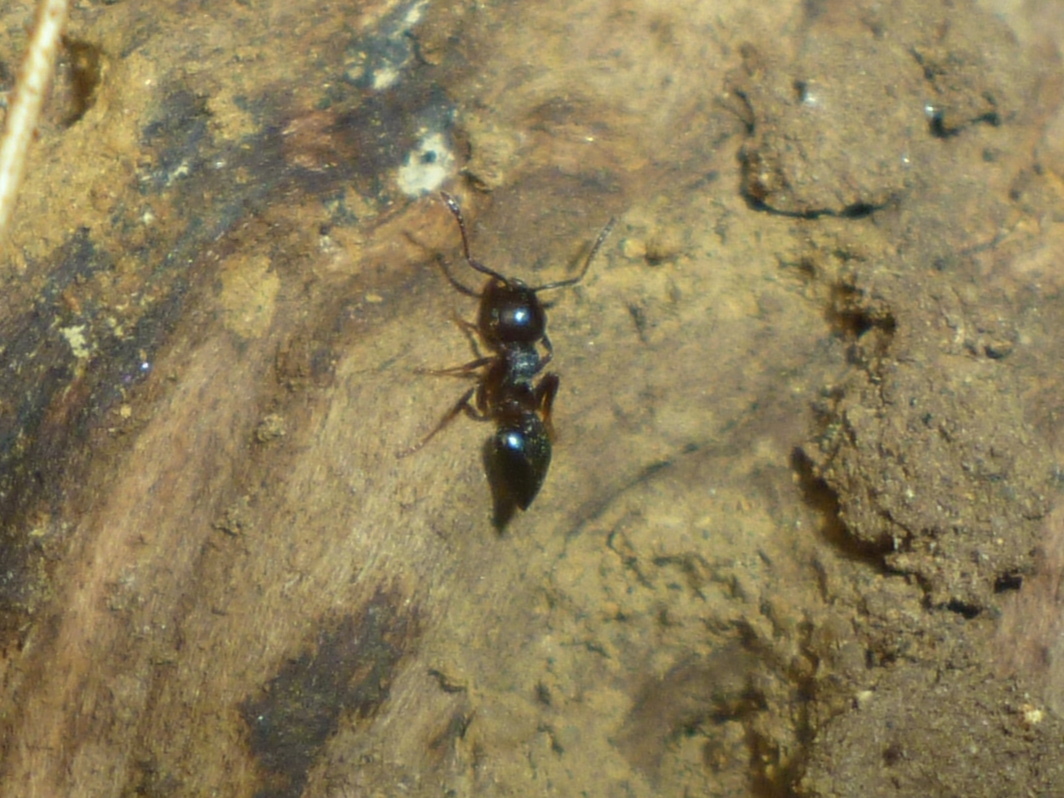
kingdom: Animalia
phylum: Arthropoda
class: Insecta
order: Hymenoptera
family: Formicidae
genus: Crematogaster
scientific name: Crematogaster
